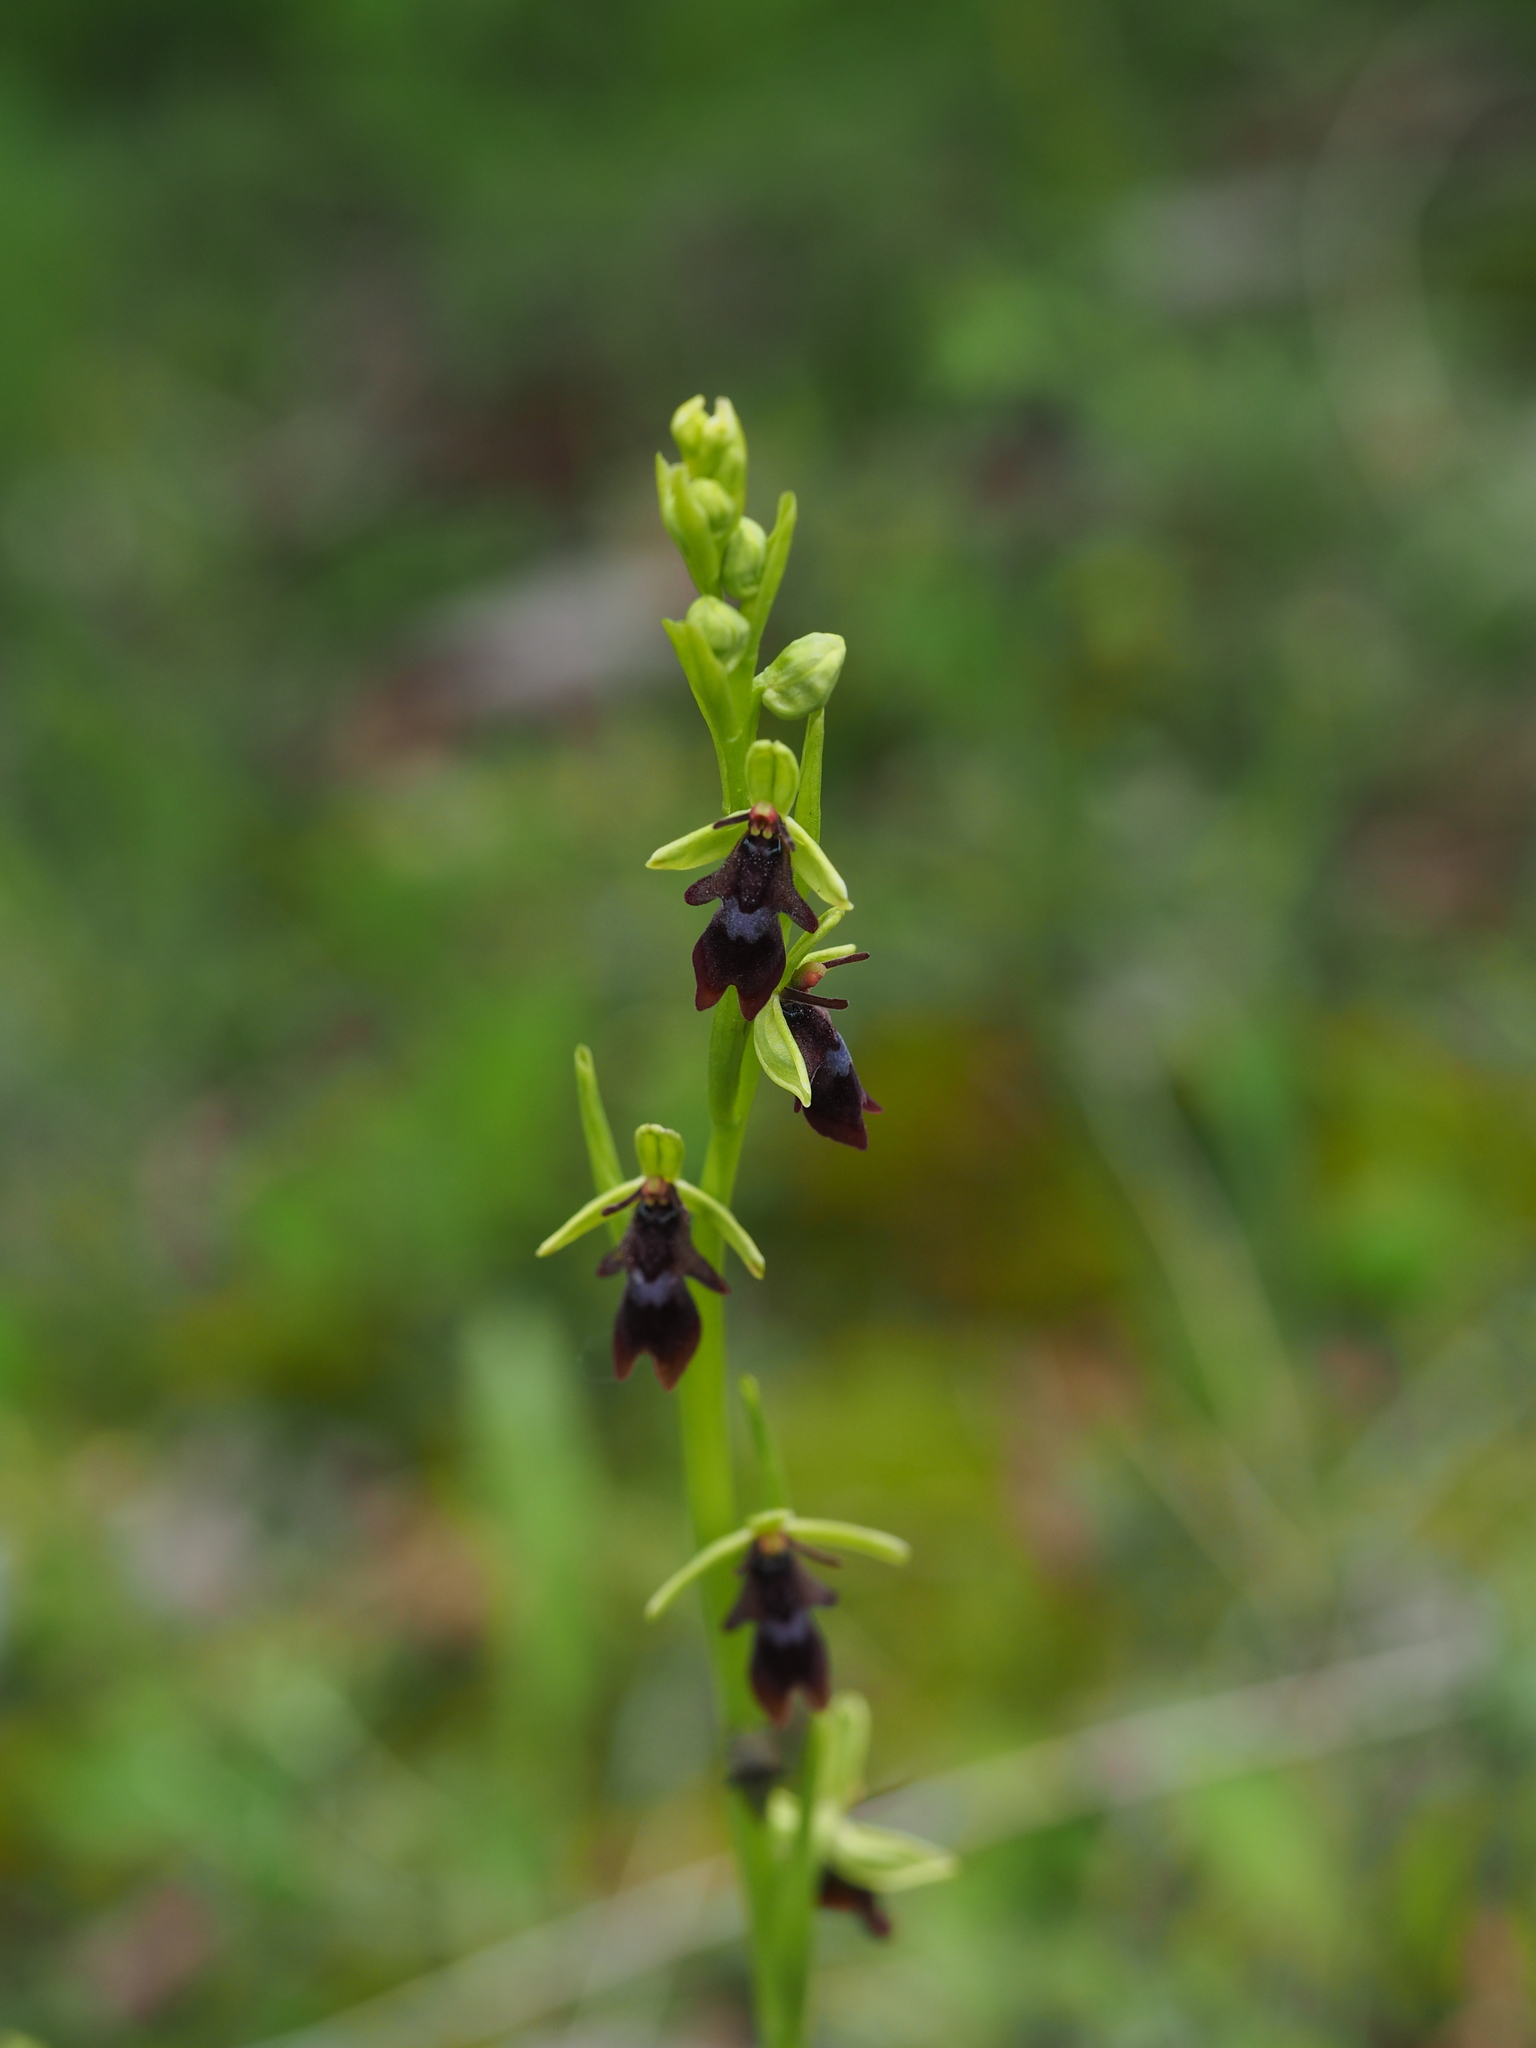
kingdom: Plantae
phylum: Tracheophyta
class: Liliopsida
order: Asparagales
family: Orchidaceae
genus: Ophrys
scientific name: Ophrys insectifera
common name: Fly orchid
